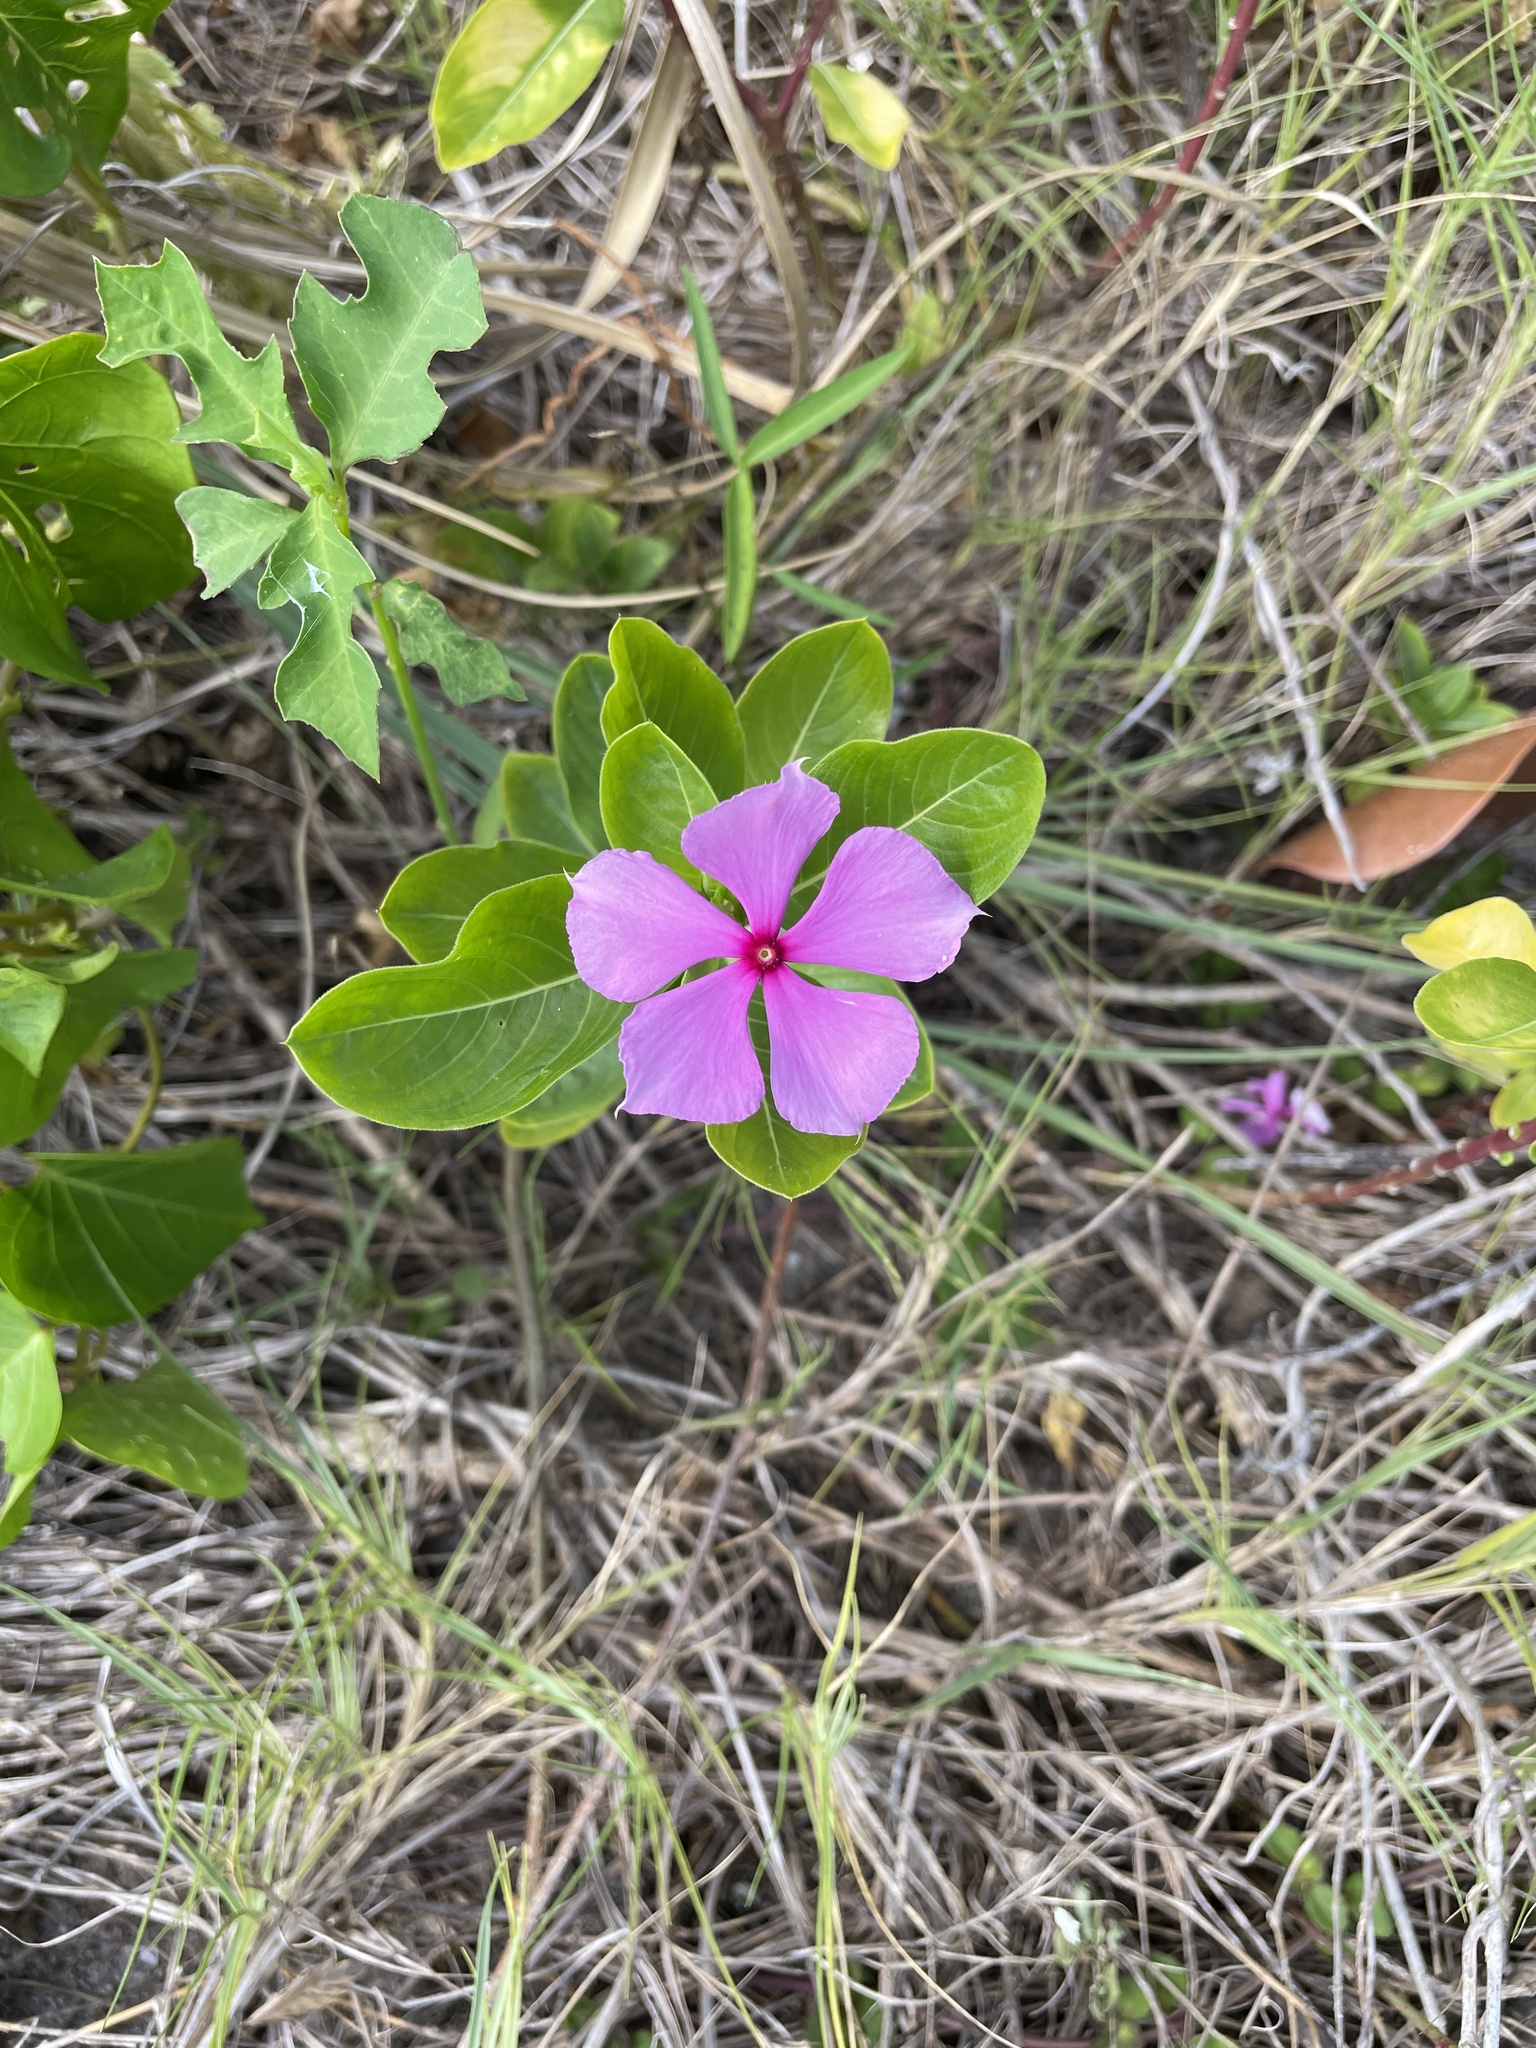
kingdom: Plantae
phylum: Tracheophyta
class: Magnoliopsida
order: Gentianales
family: Apocynaceae
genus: Catharanthus
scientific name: Catharanthus roseus
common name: Madagascar periwinkle
